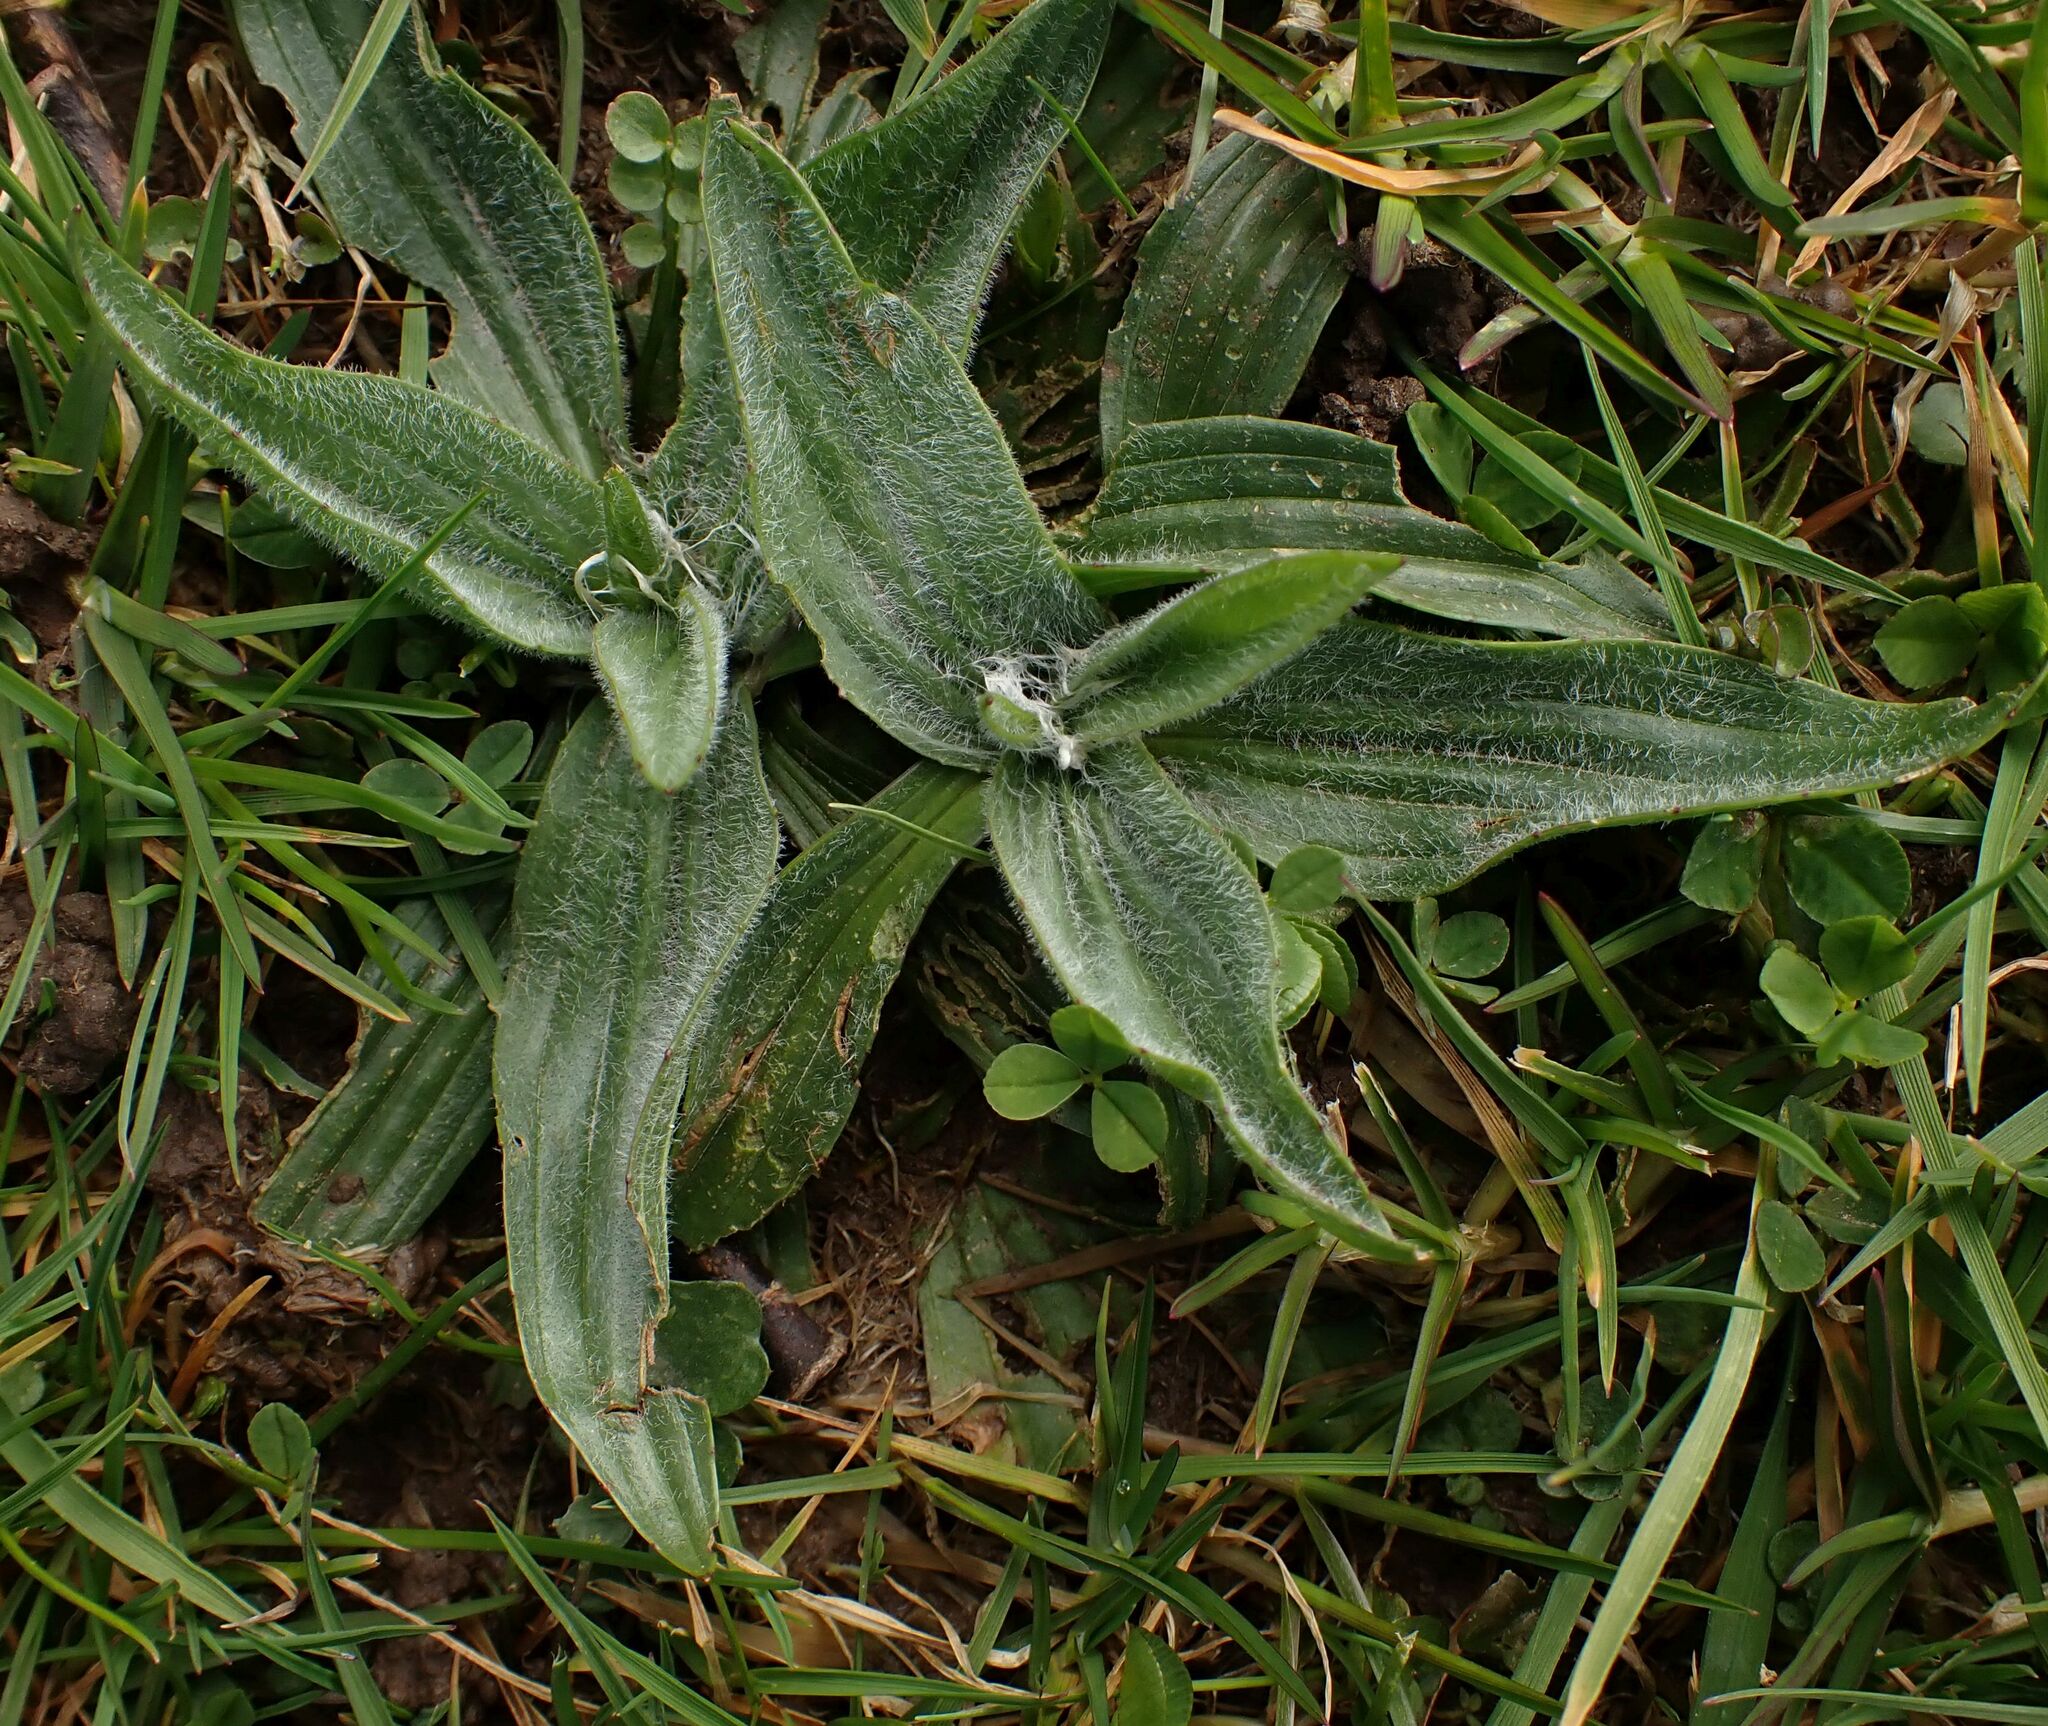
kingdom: Plantae
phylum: Tracheophyta
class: Magnoliopsida
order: Lamiales
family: Plantaginaceae
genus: Plantago
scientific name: Plantago lanceolata
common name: Ribwort plantain
